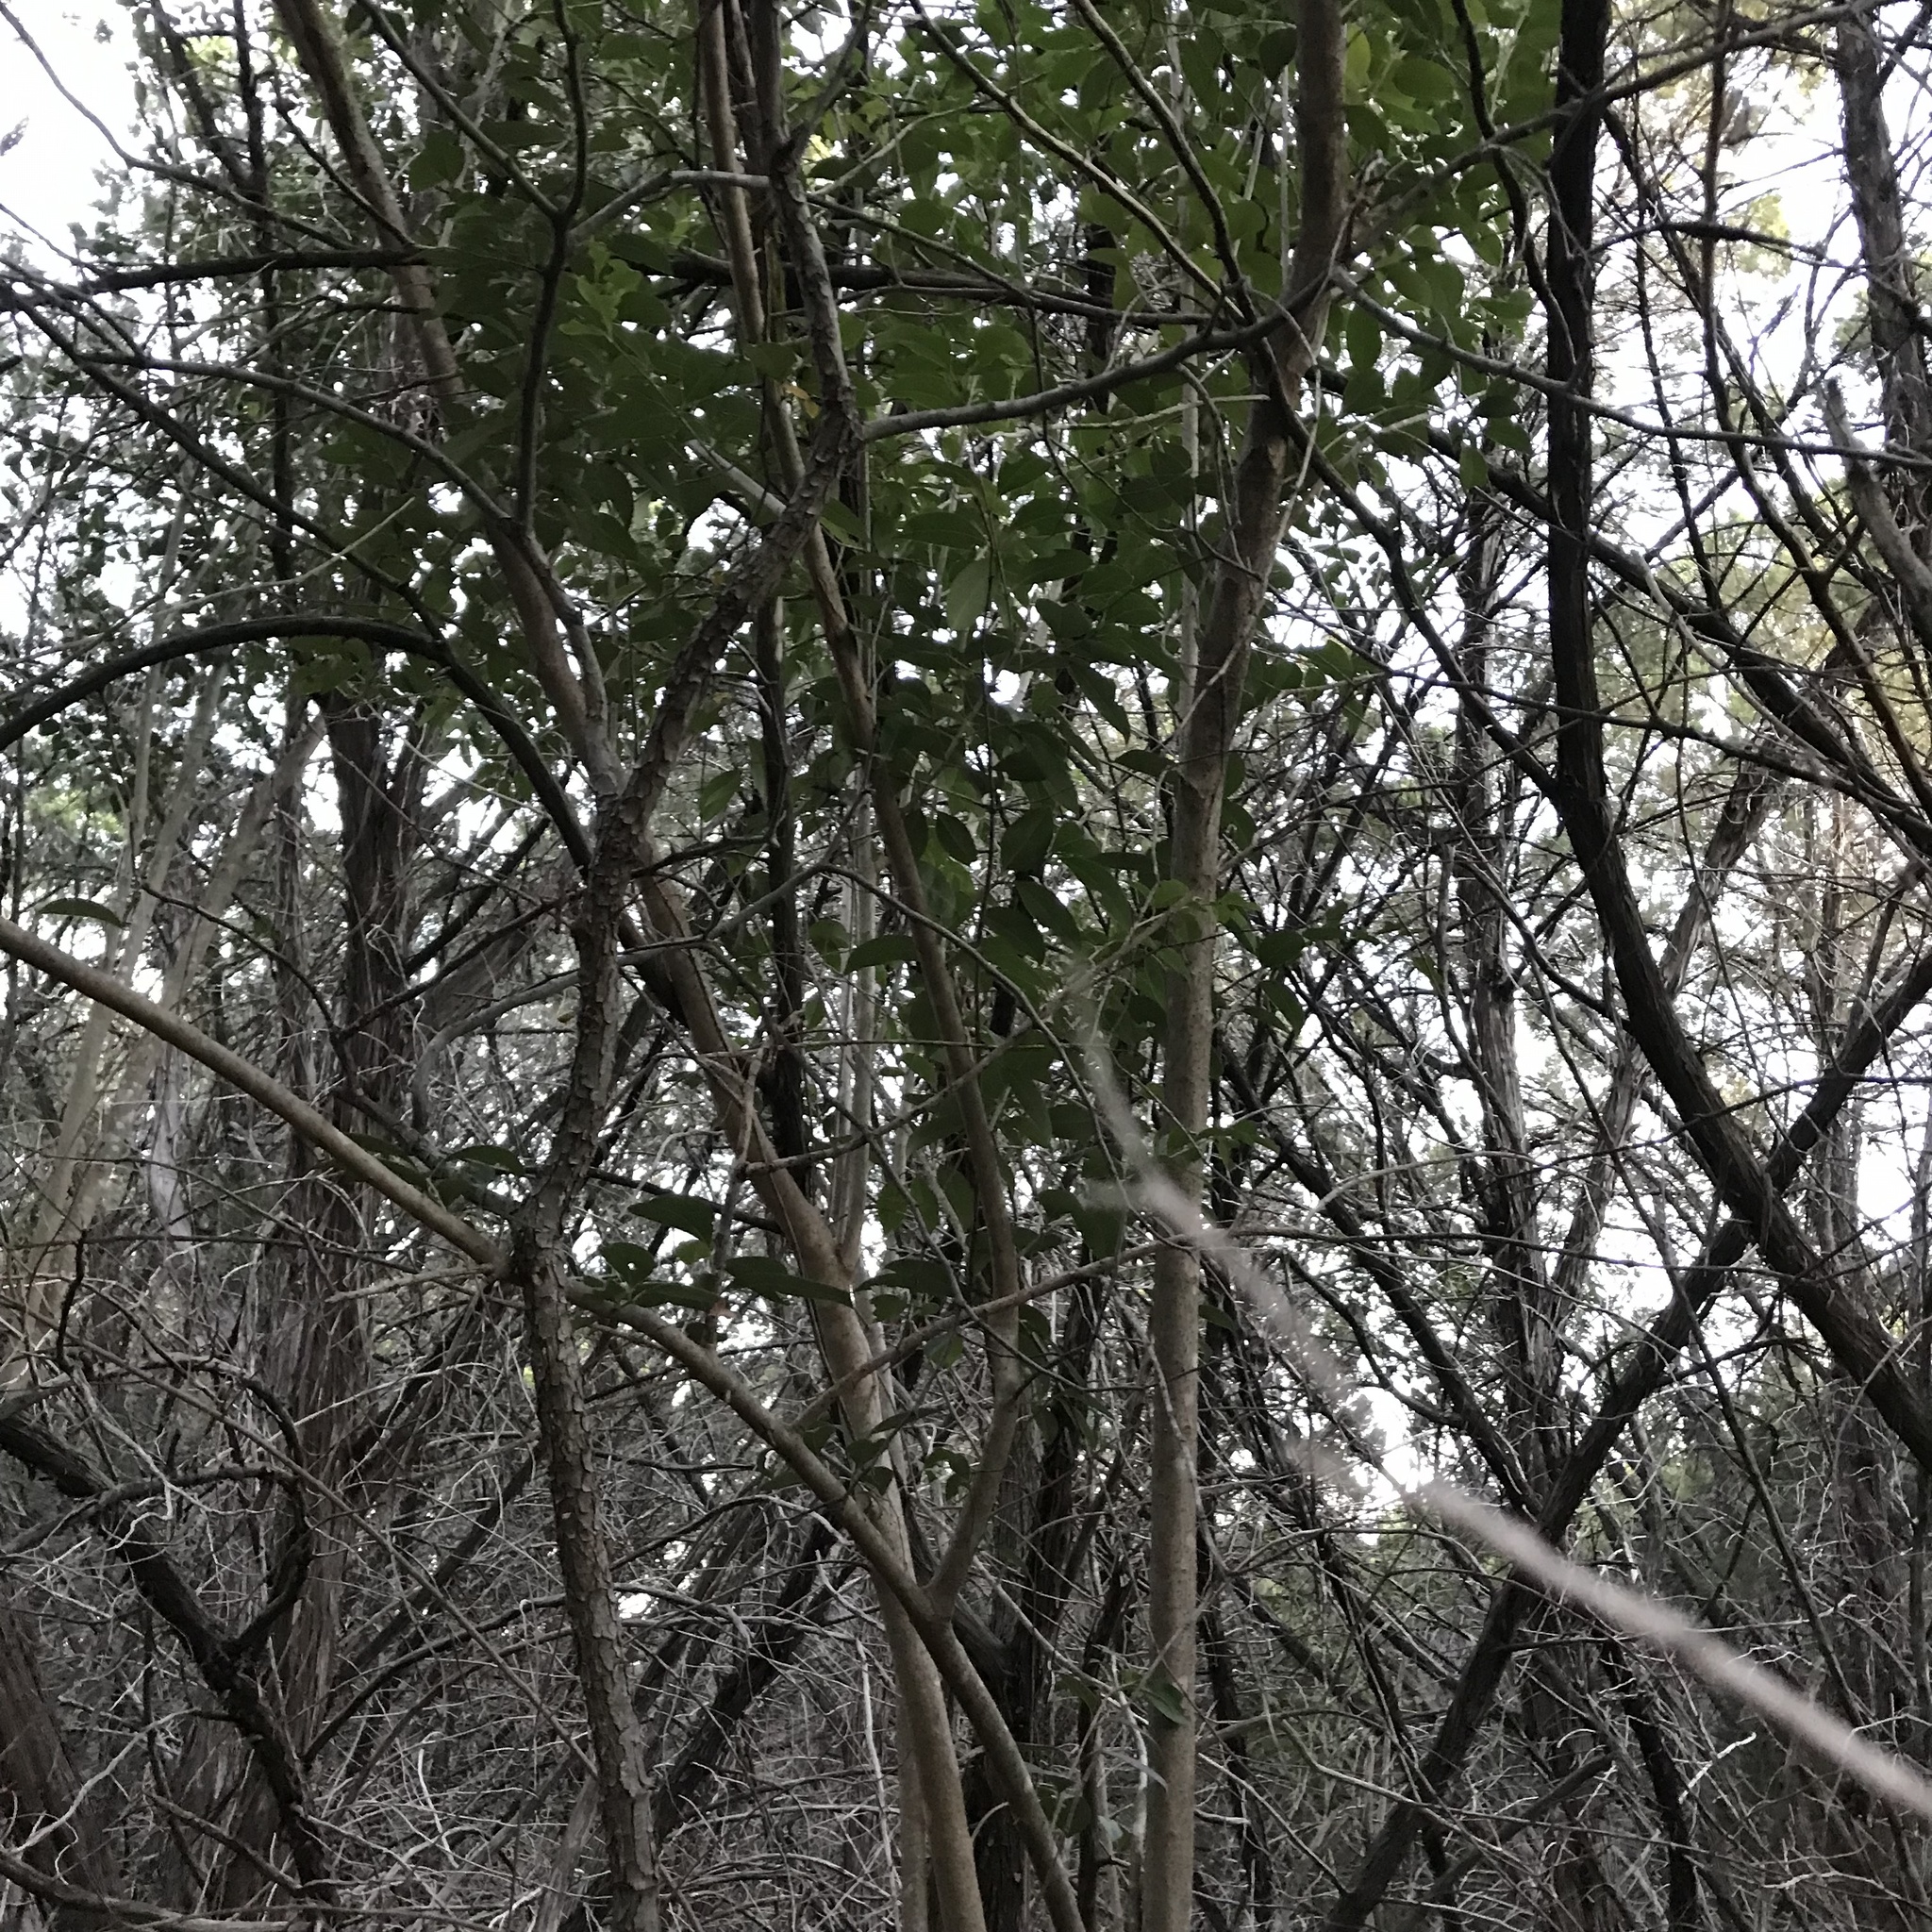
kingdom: Plantae
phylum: Tracheophyta
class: Magnoliopsida
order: Lamiales
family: Oleaceae
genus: Ligustrum
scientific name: Ligustrum lucidum
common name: Glossy privet
